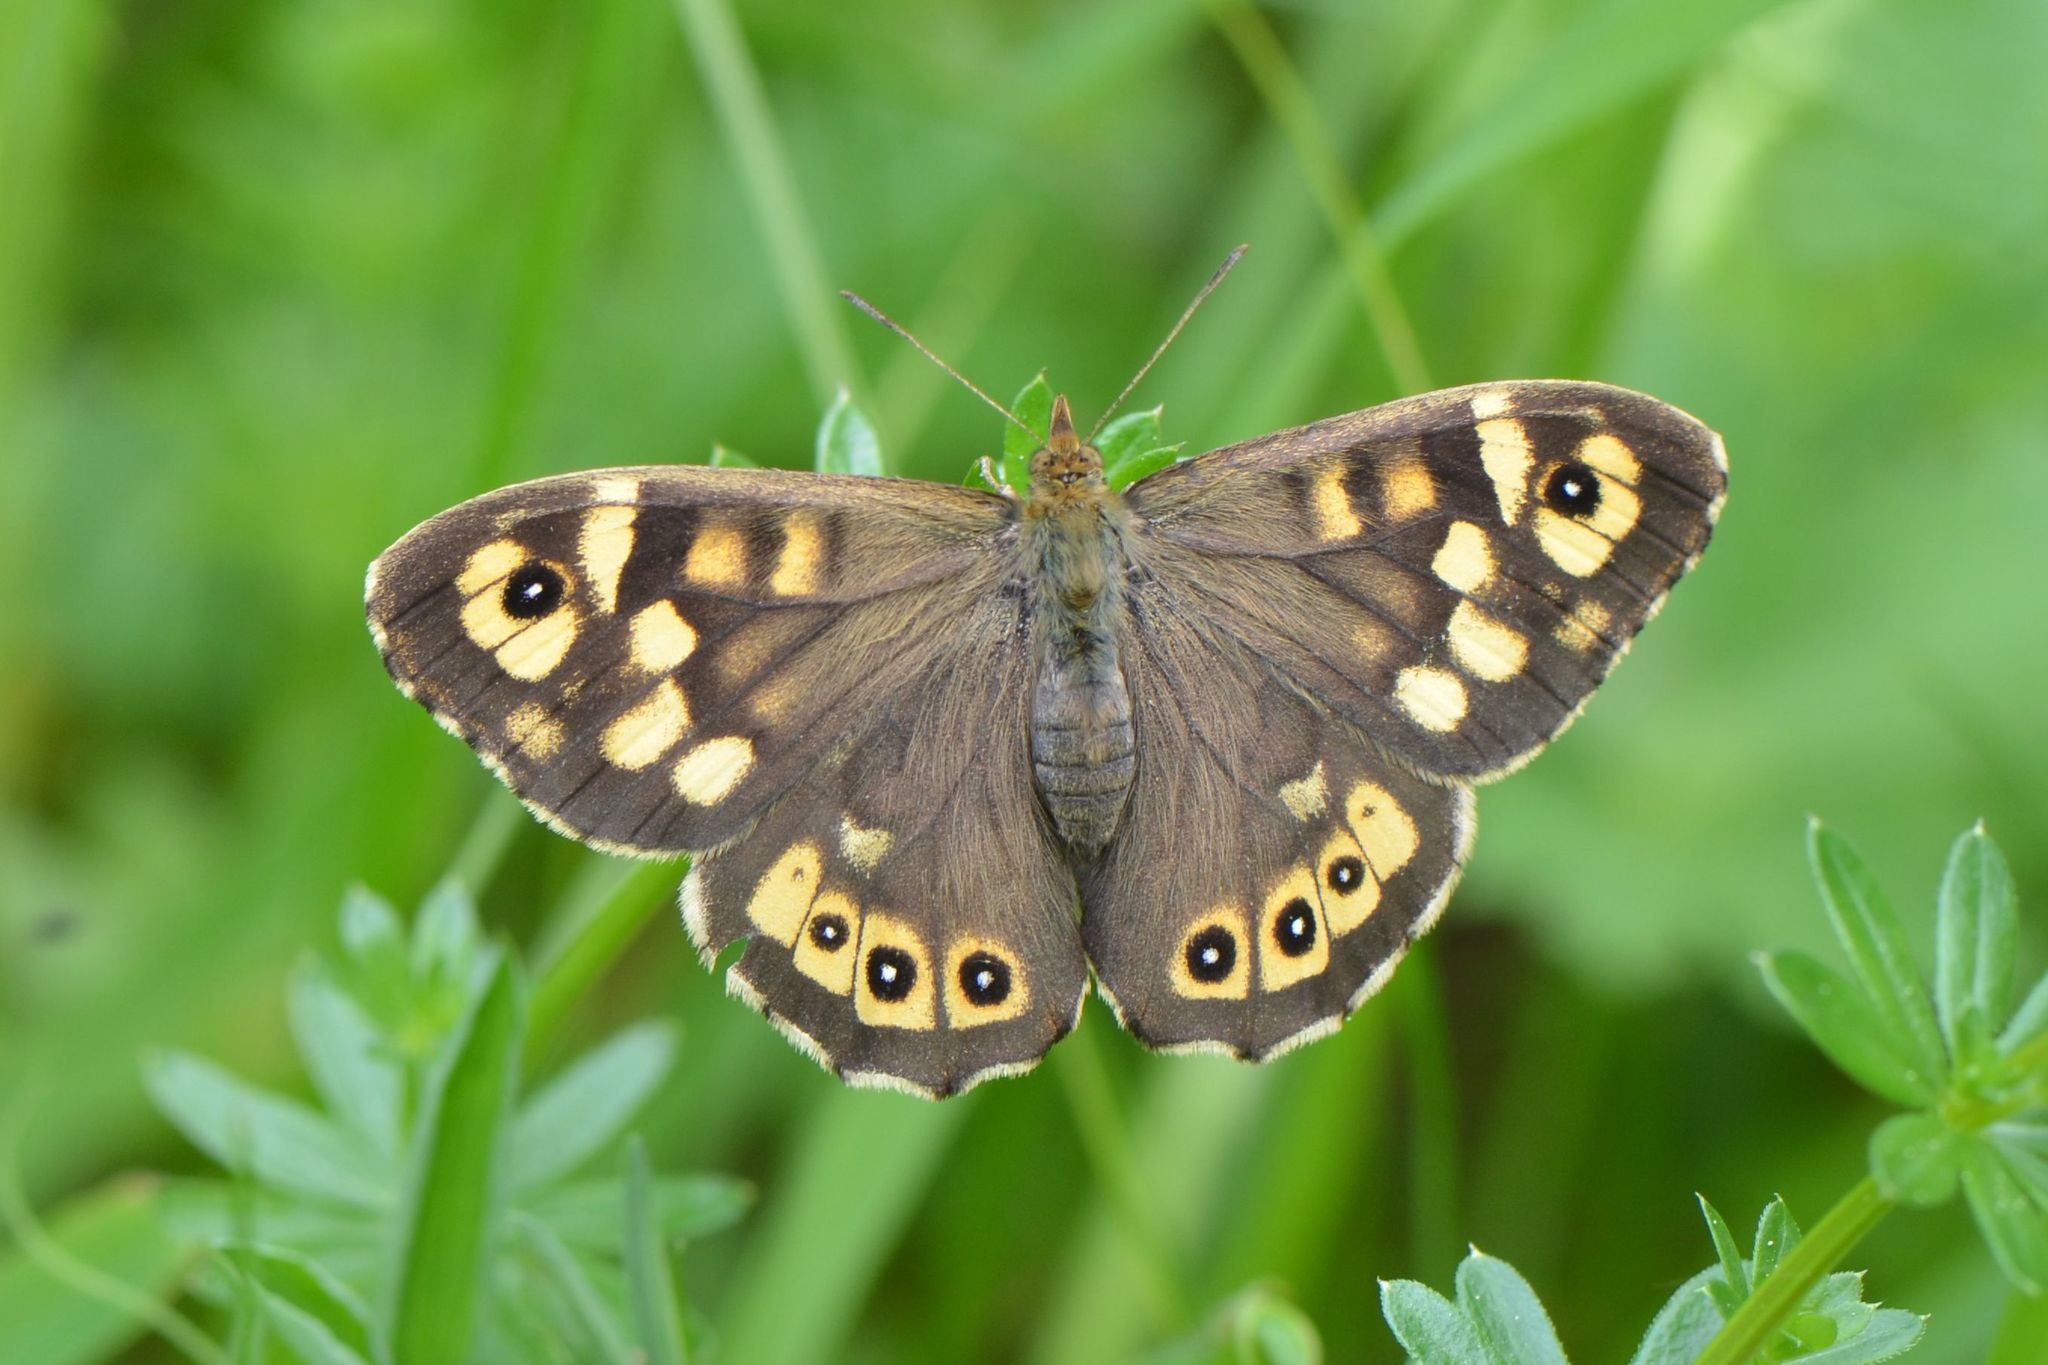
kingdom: Animalia
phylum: Arthropoda
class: Insecta
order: Lepidoptera
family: Nymphalidae
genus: Pararge
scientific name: Pararge aegeria
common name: Speckled wood
